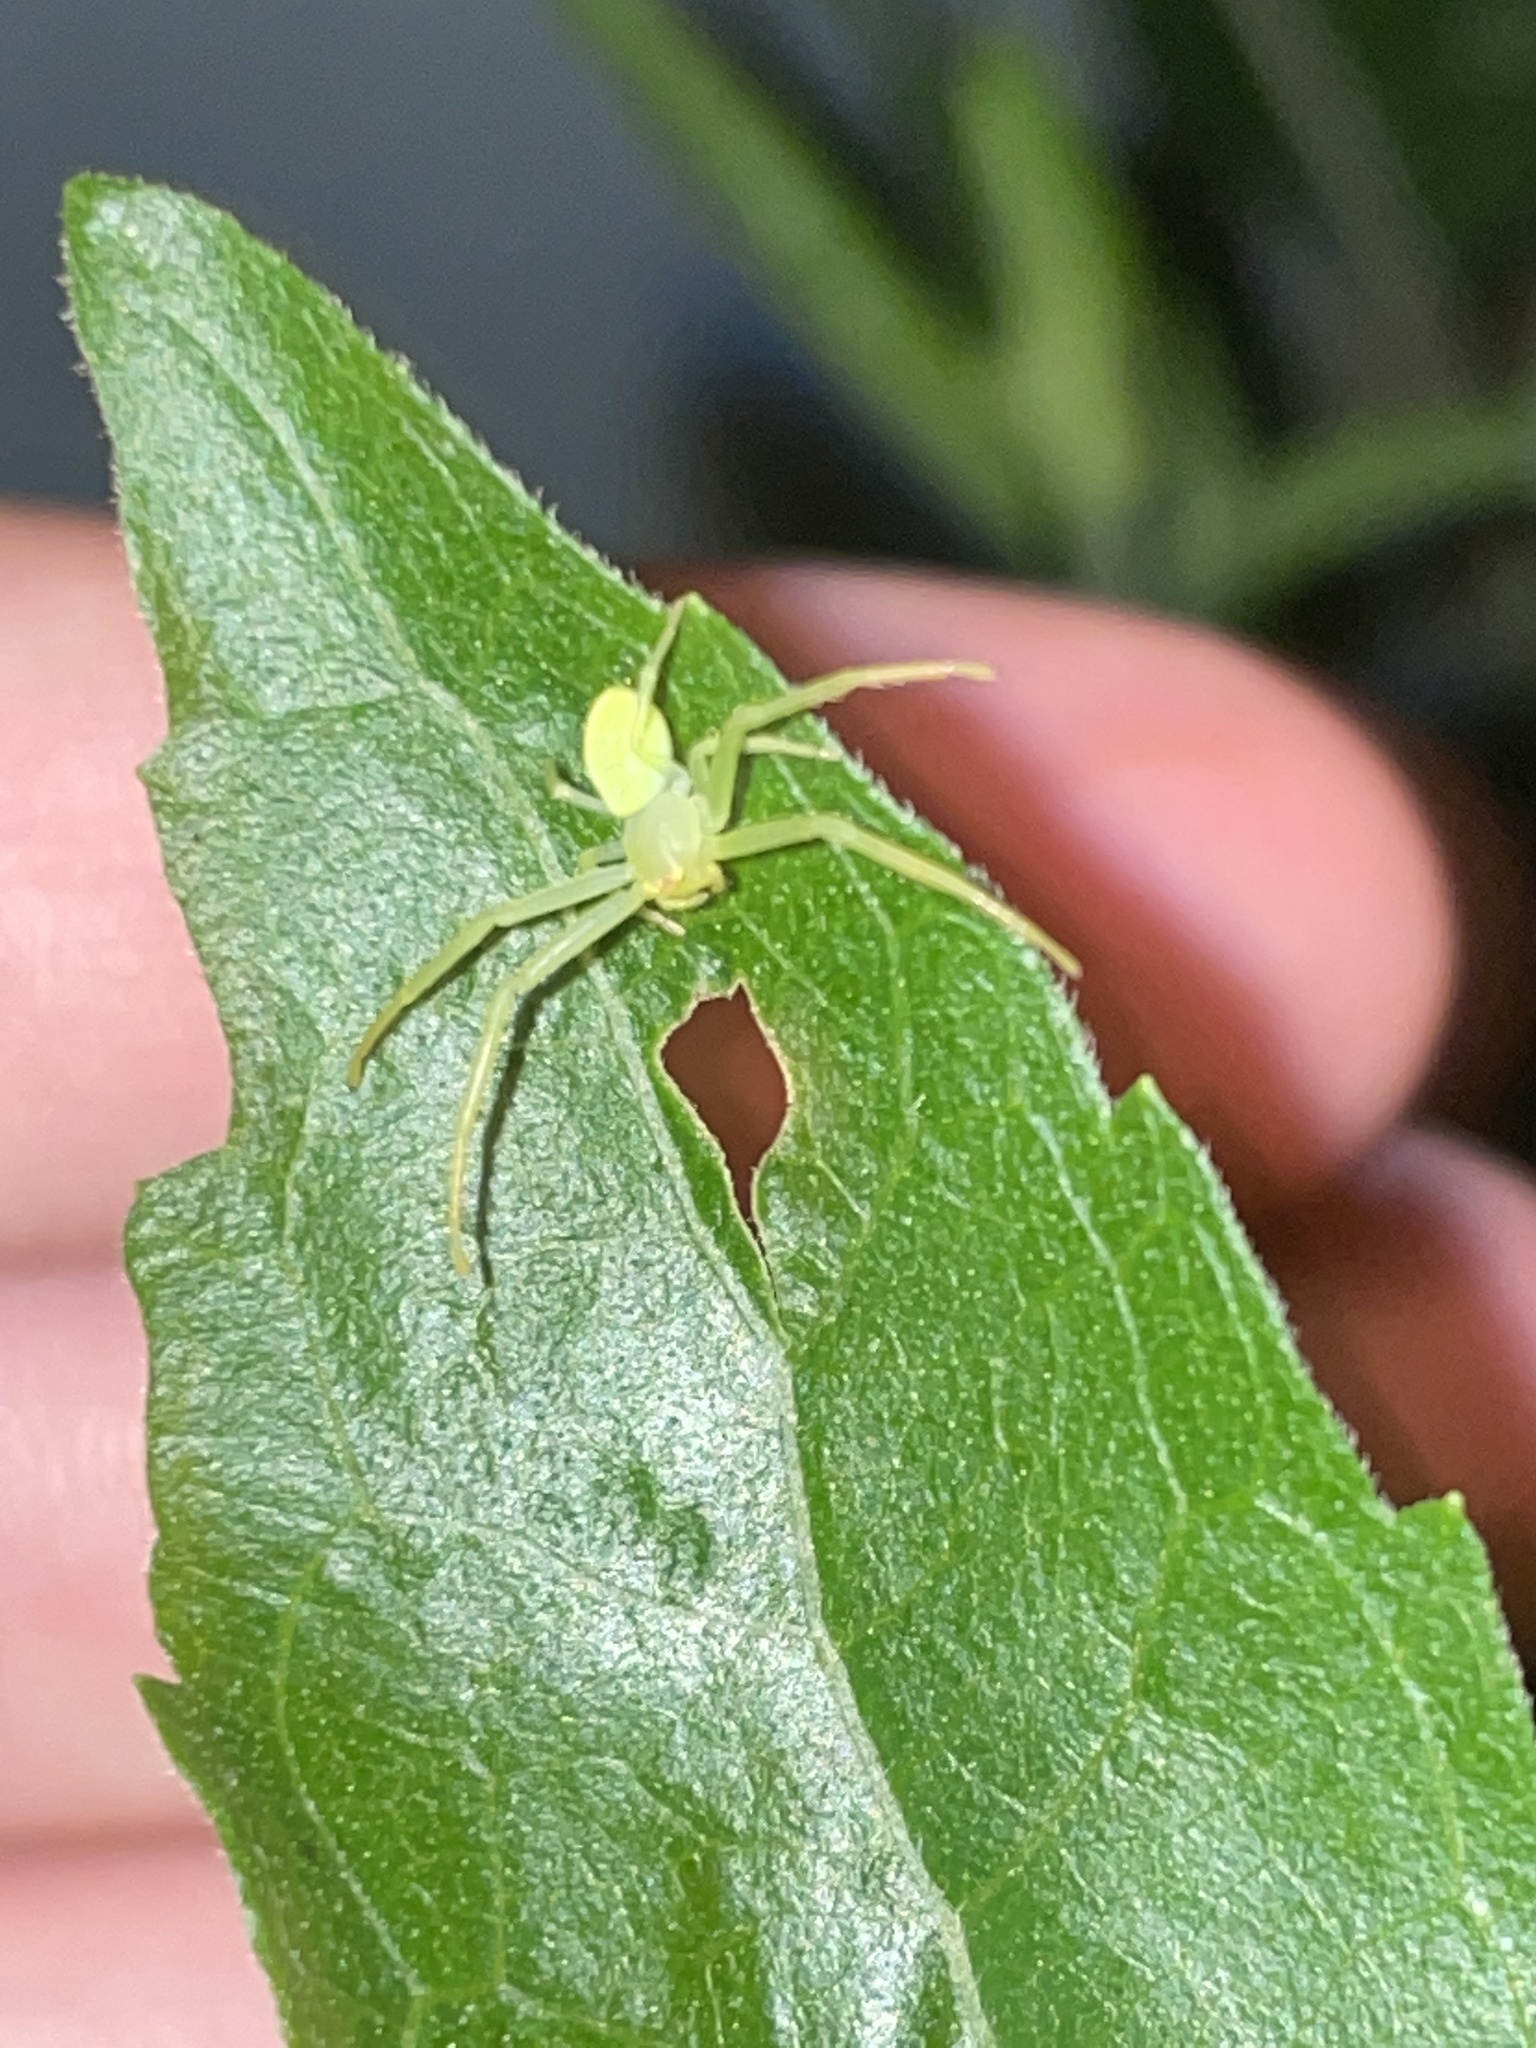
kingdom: Animalia
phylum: Arthropoda
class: Arachnida
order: Araneae
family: Thomisidae
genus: Misumessus
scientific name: Misumessus oblongus
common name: American green crab spider
